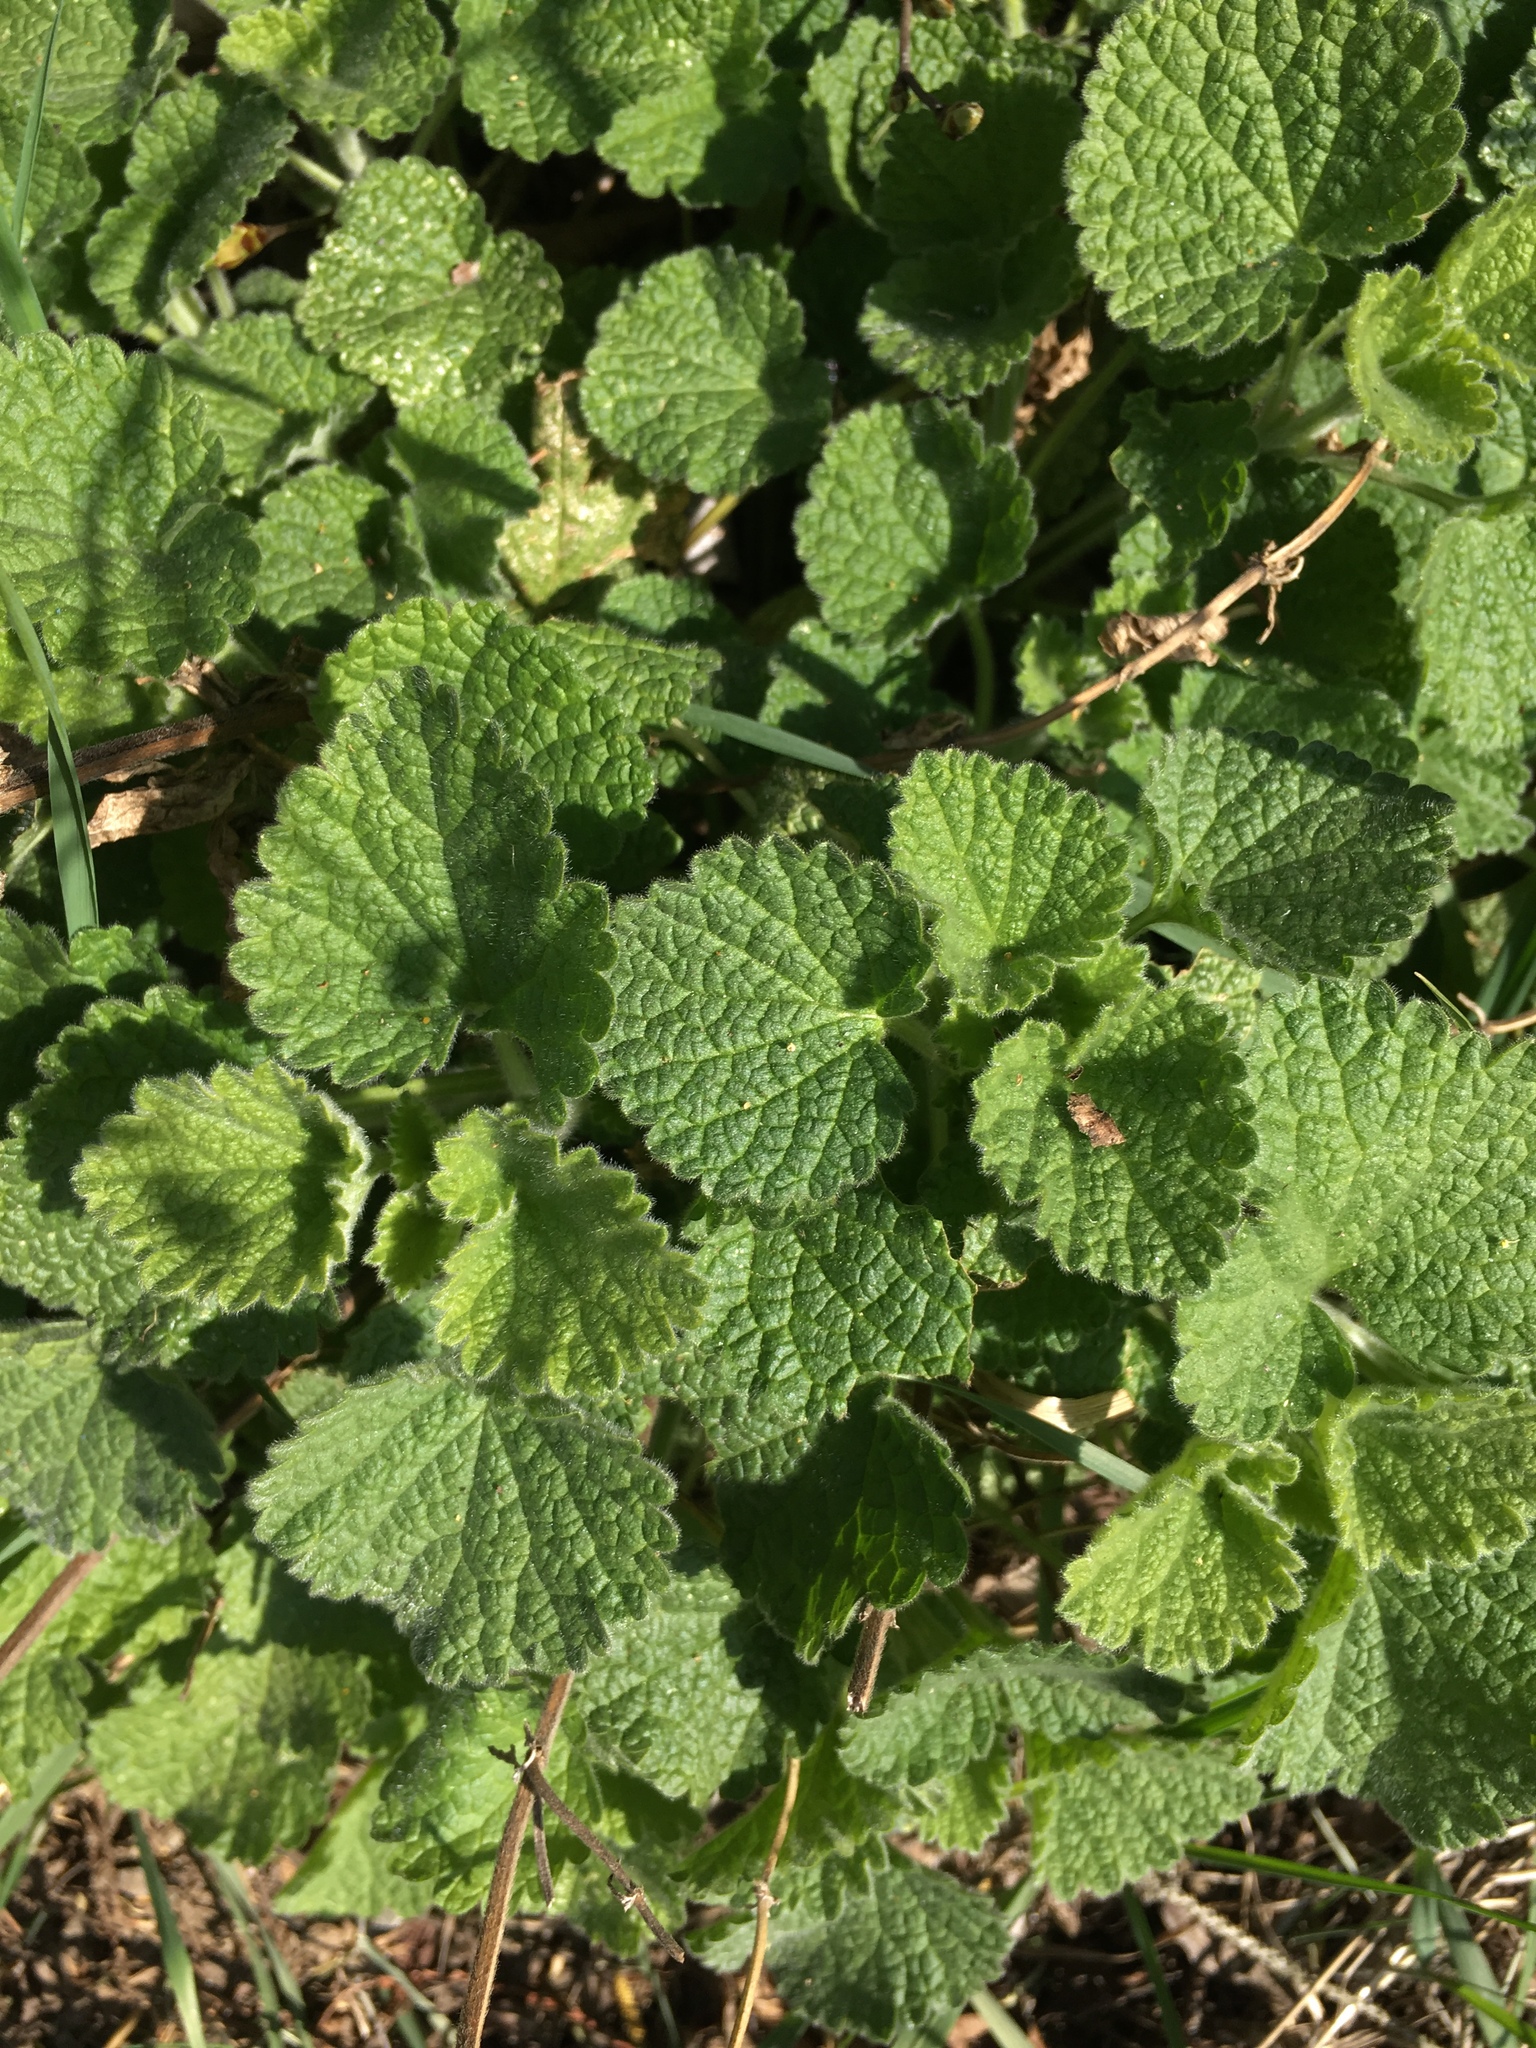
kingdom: Plantae
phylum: Tracheophyta
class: Magnoliopsida
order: Lamiales
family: Lamiaceae
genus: Ballota
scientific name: Ballota nigra
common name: Black horehound
